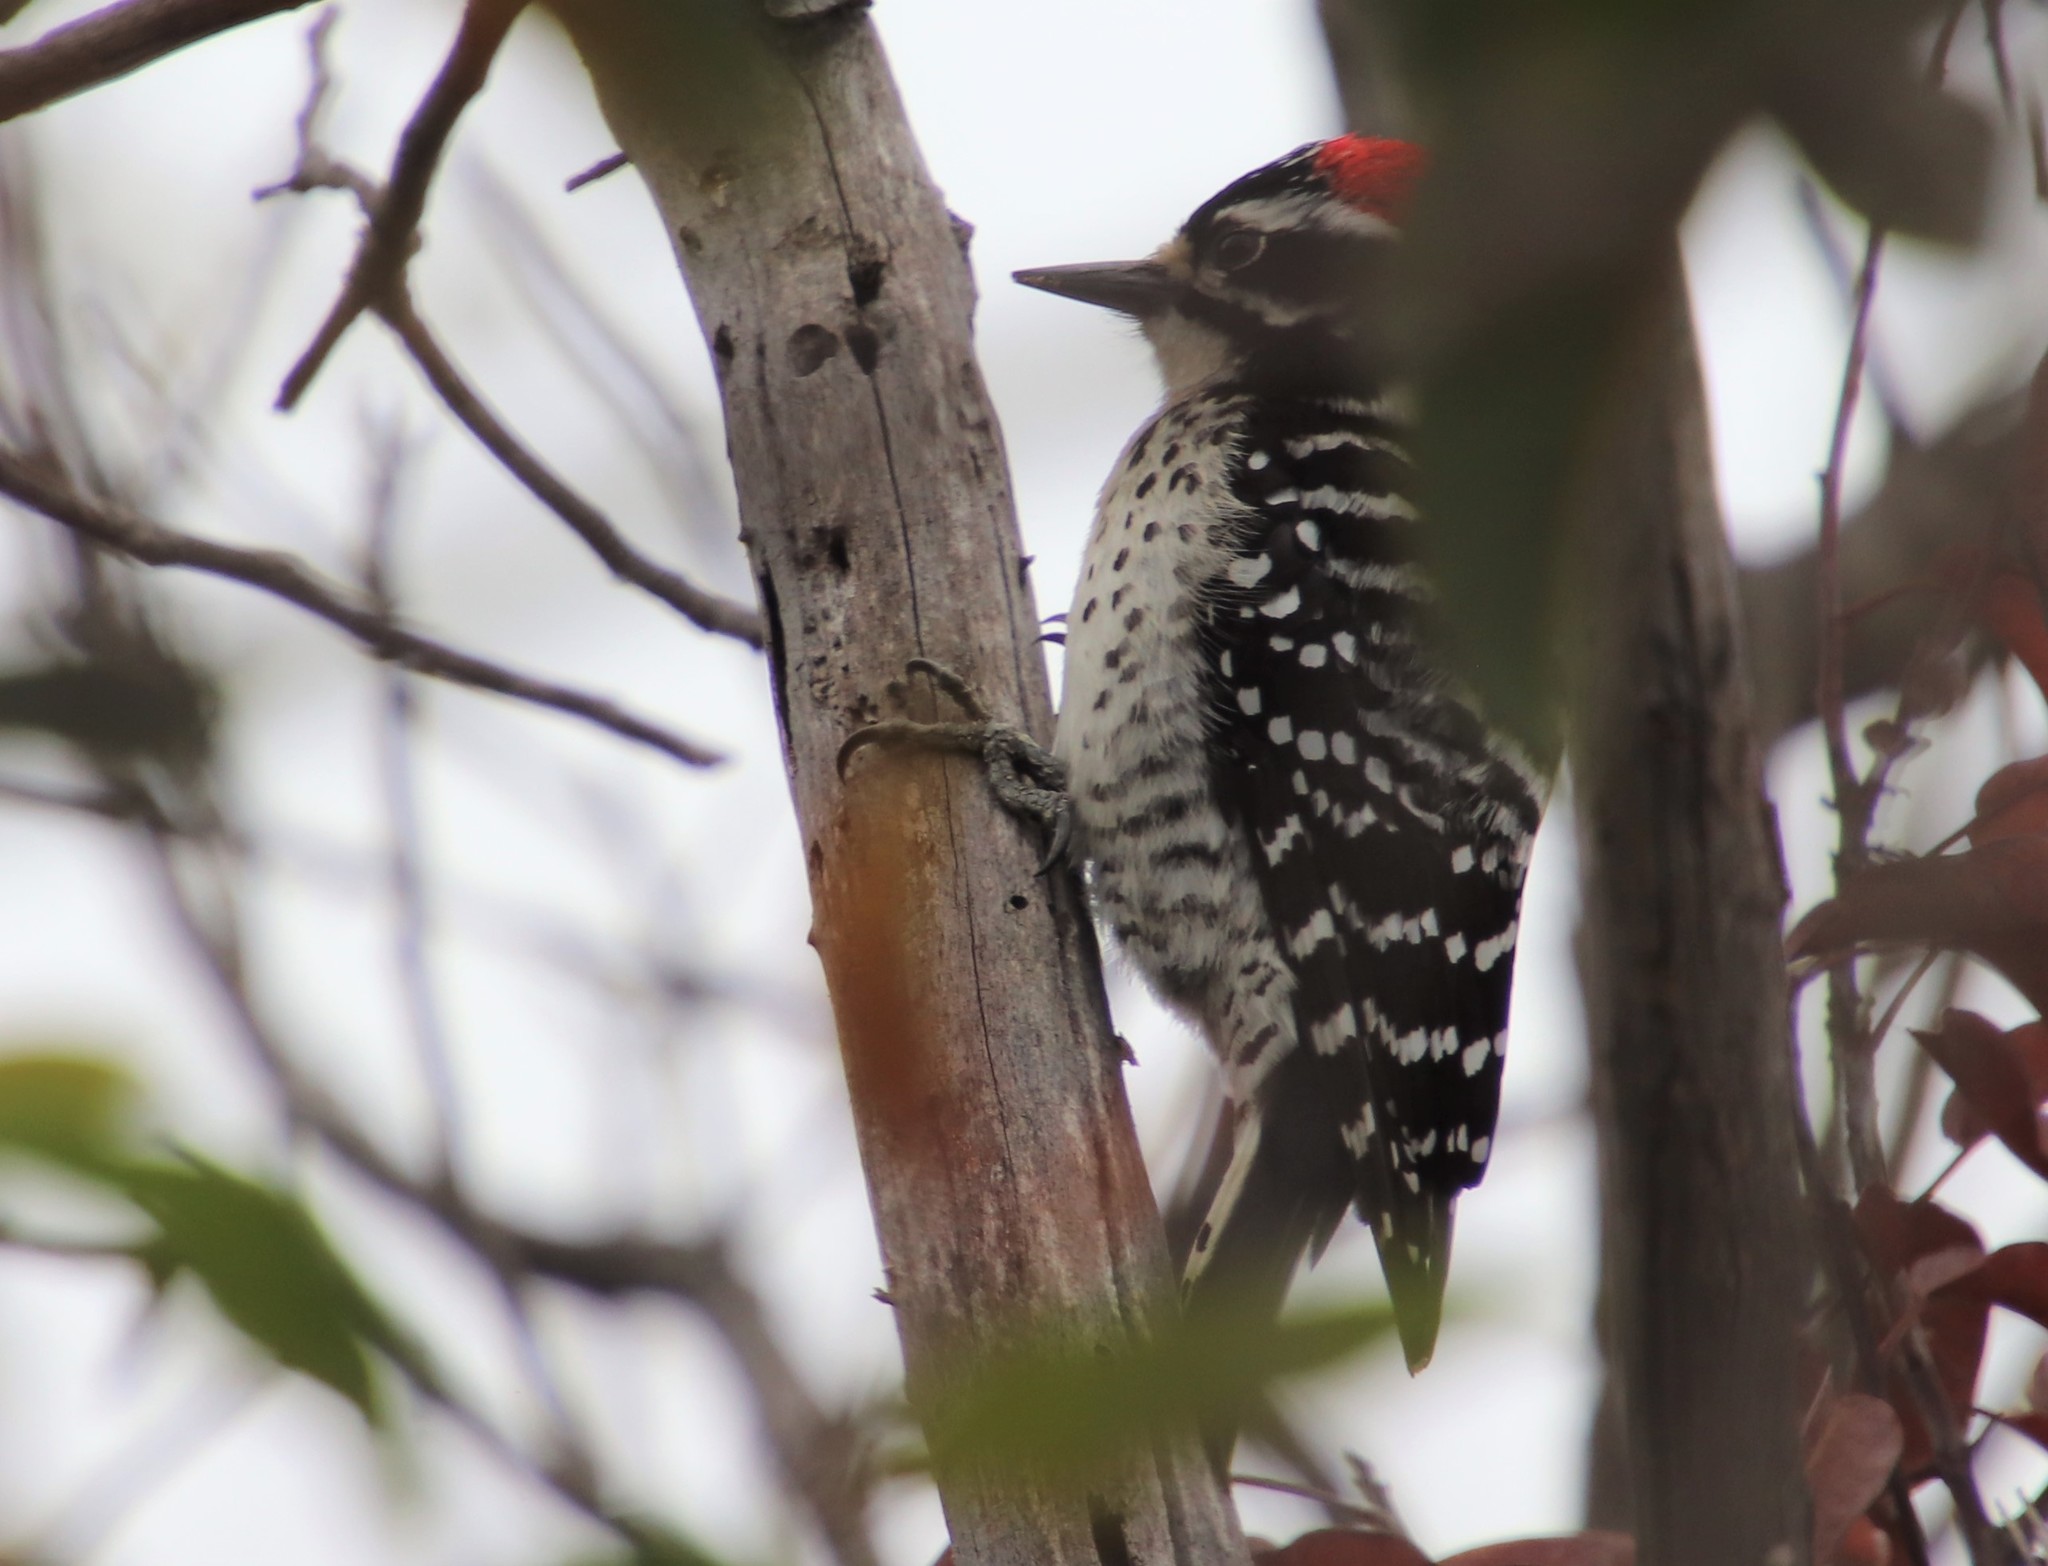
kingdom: Animalia
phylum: Chordata
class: Aves
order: Piciformes
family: Picidae
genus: Dryobates
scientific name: Dryobates nuttallii
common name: Nuttall's woodpecker
